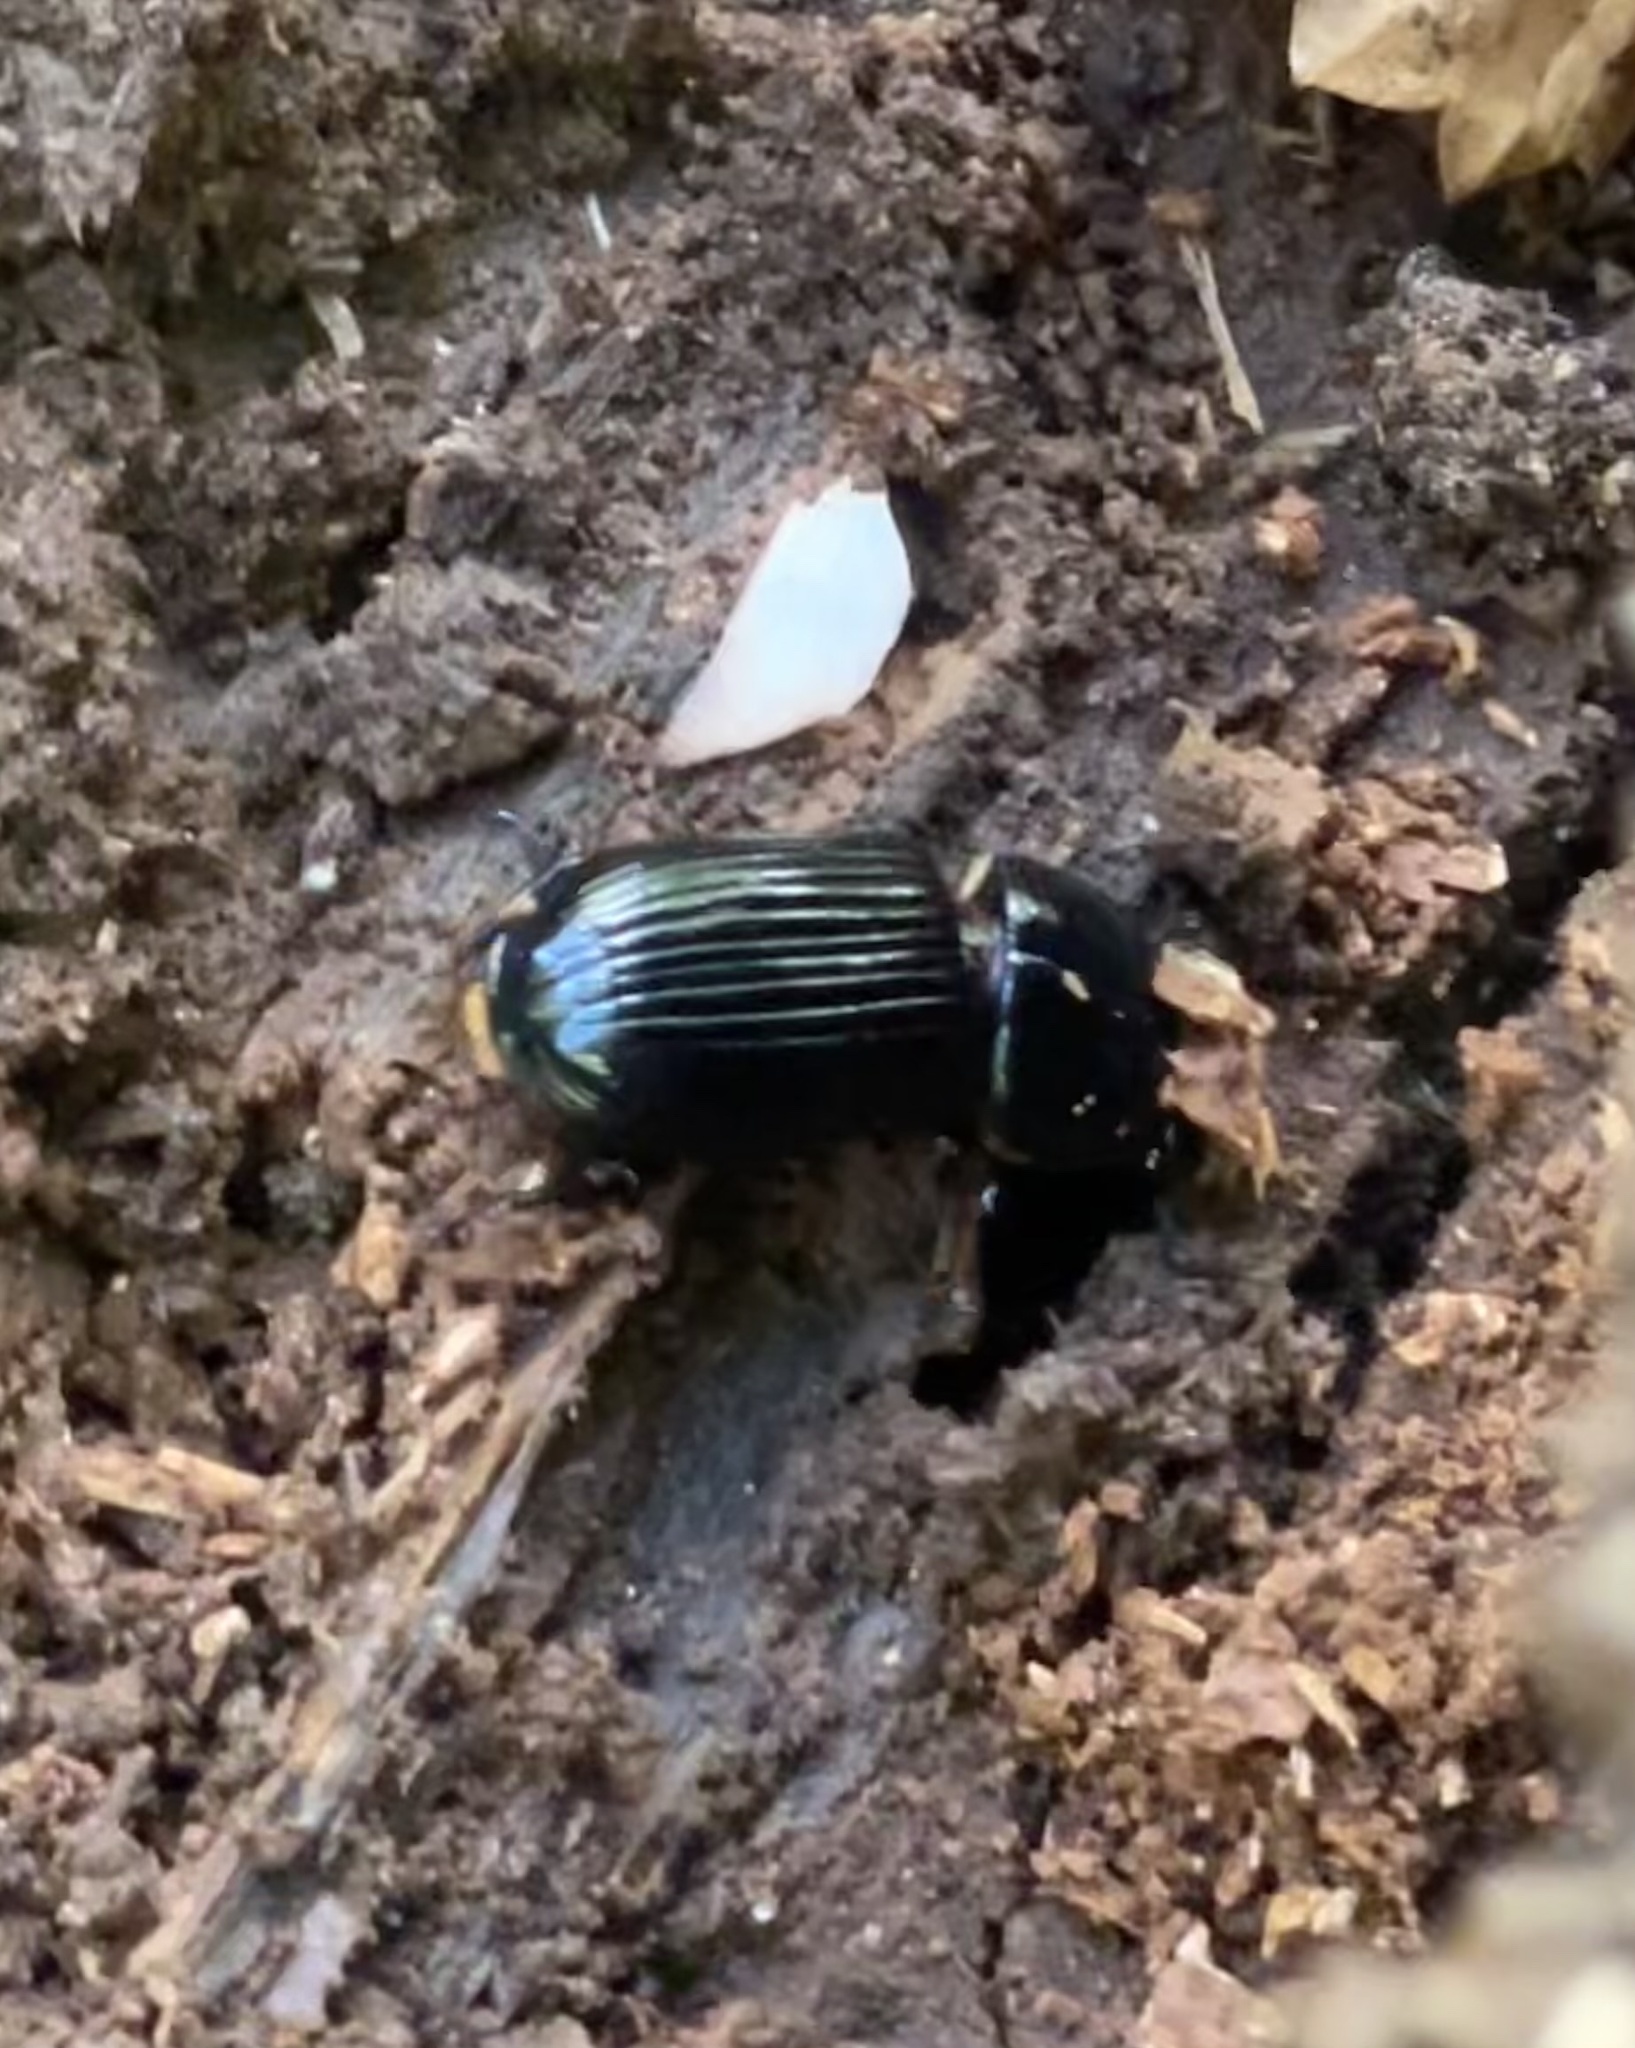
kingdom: Animalia
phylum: Arthropoda
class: Insecta
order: Coleoptera
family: Passalidae
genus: Odontotaenius
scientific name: Odontotaenius disjunctus
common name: Patent leather beetle
